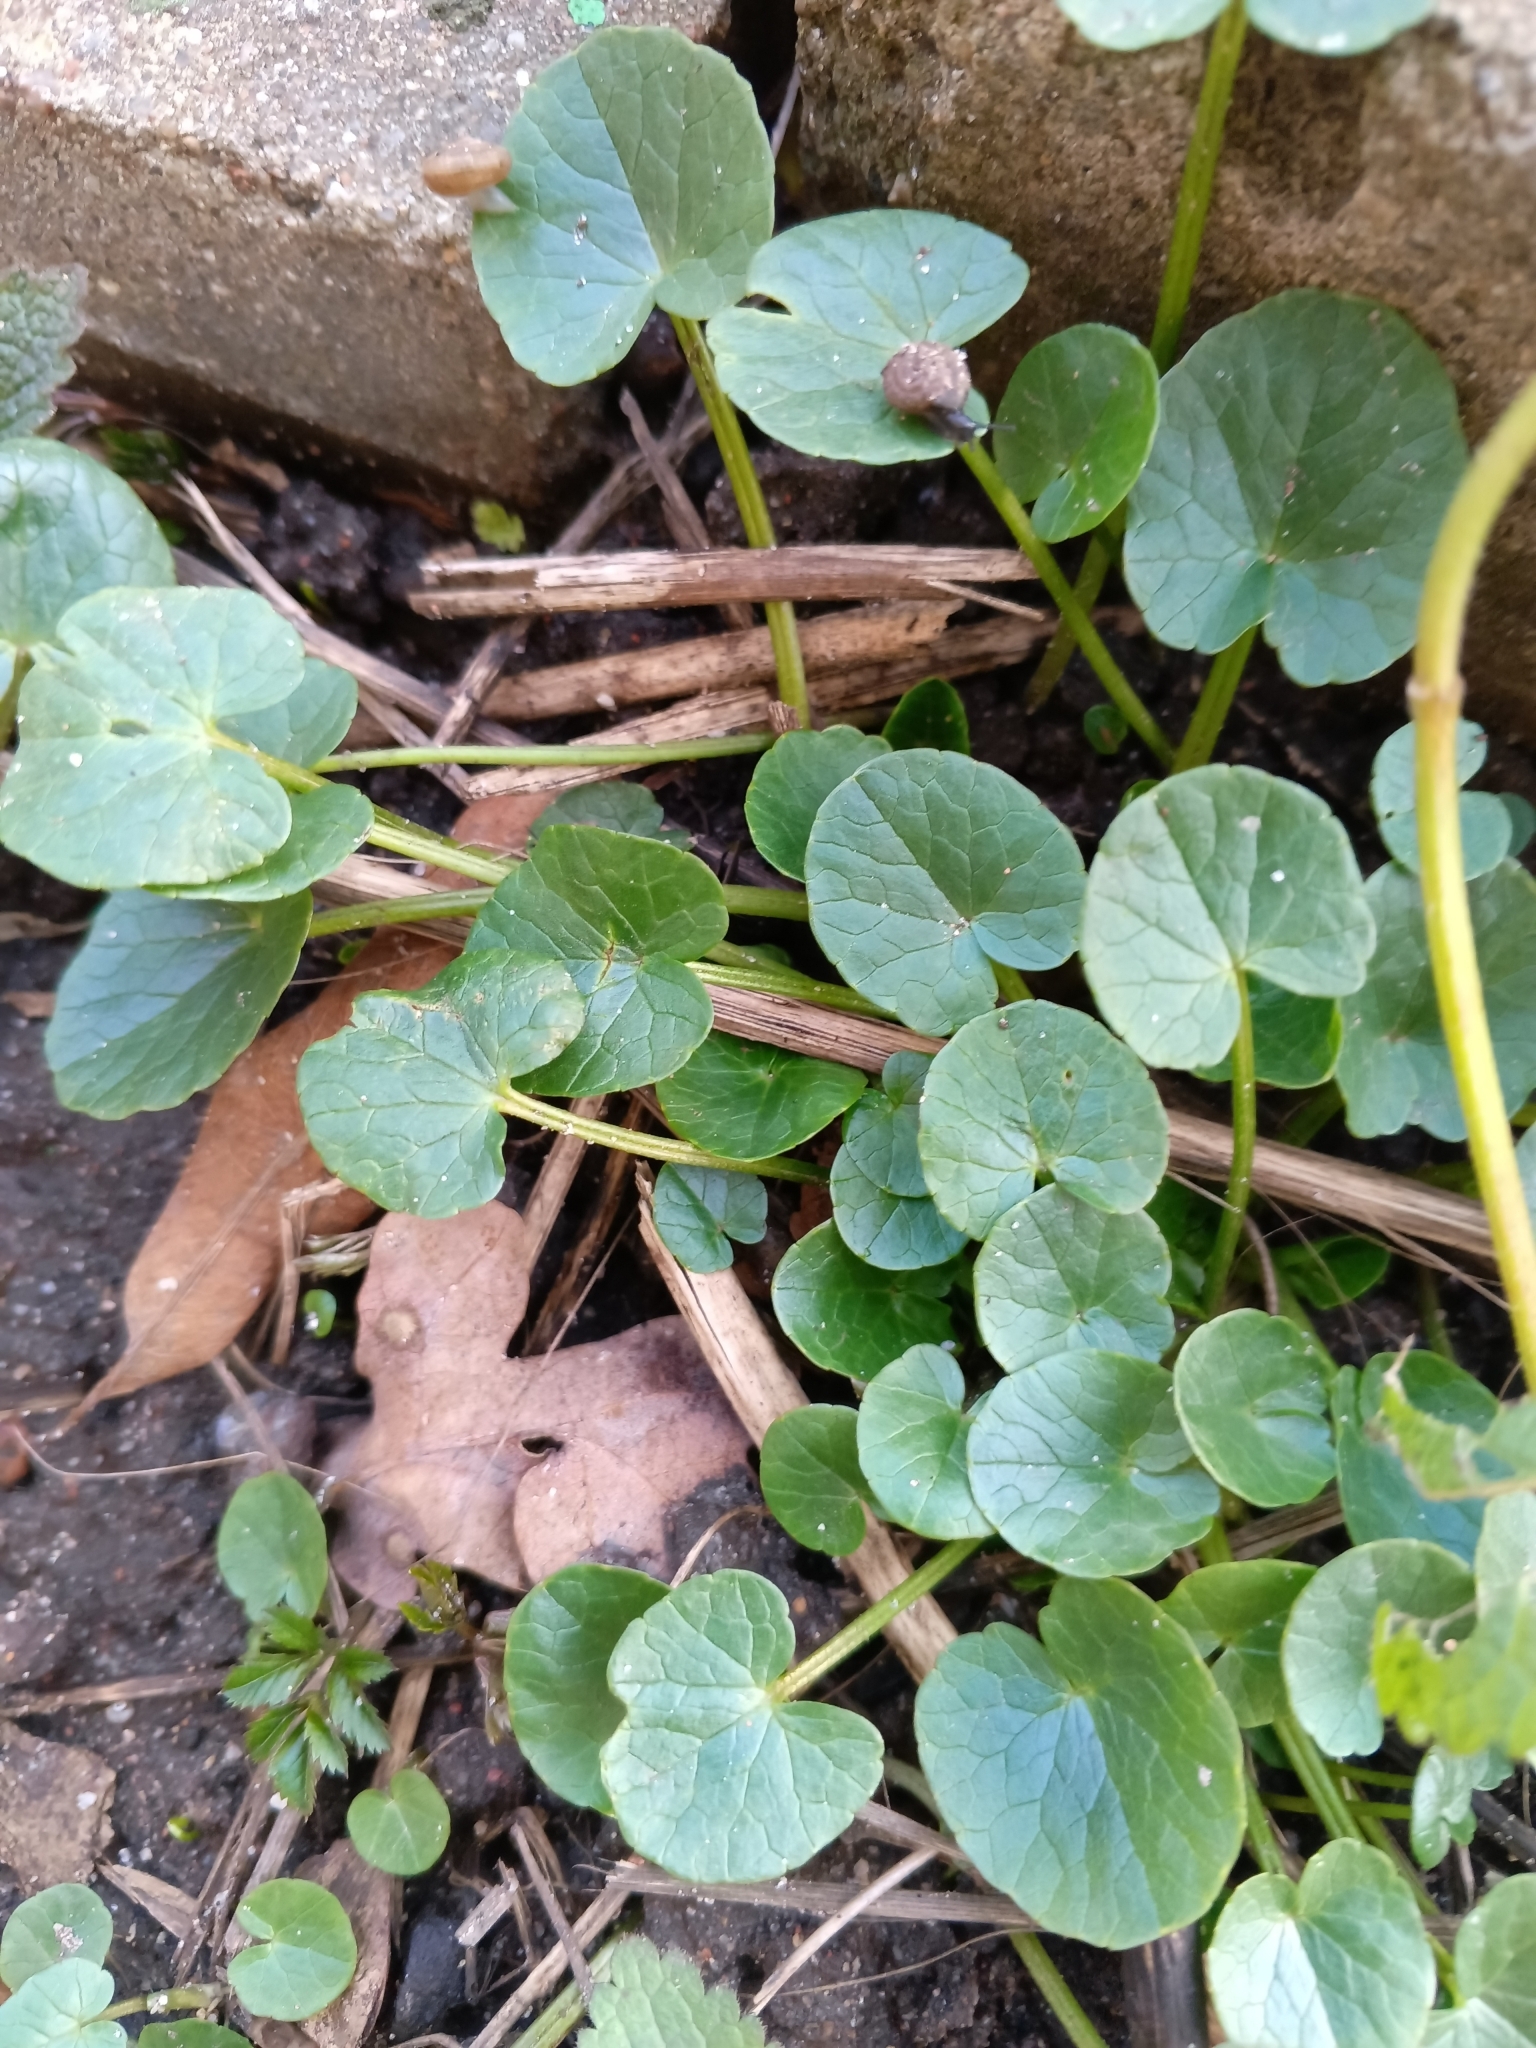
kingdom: Plantae
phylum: Tracheophyta
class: Magnoliopsida
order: Ranunculales
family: Ranunculaceae
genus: Ficaria
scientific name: Ficaria verna
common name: Lesser celandine
